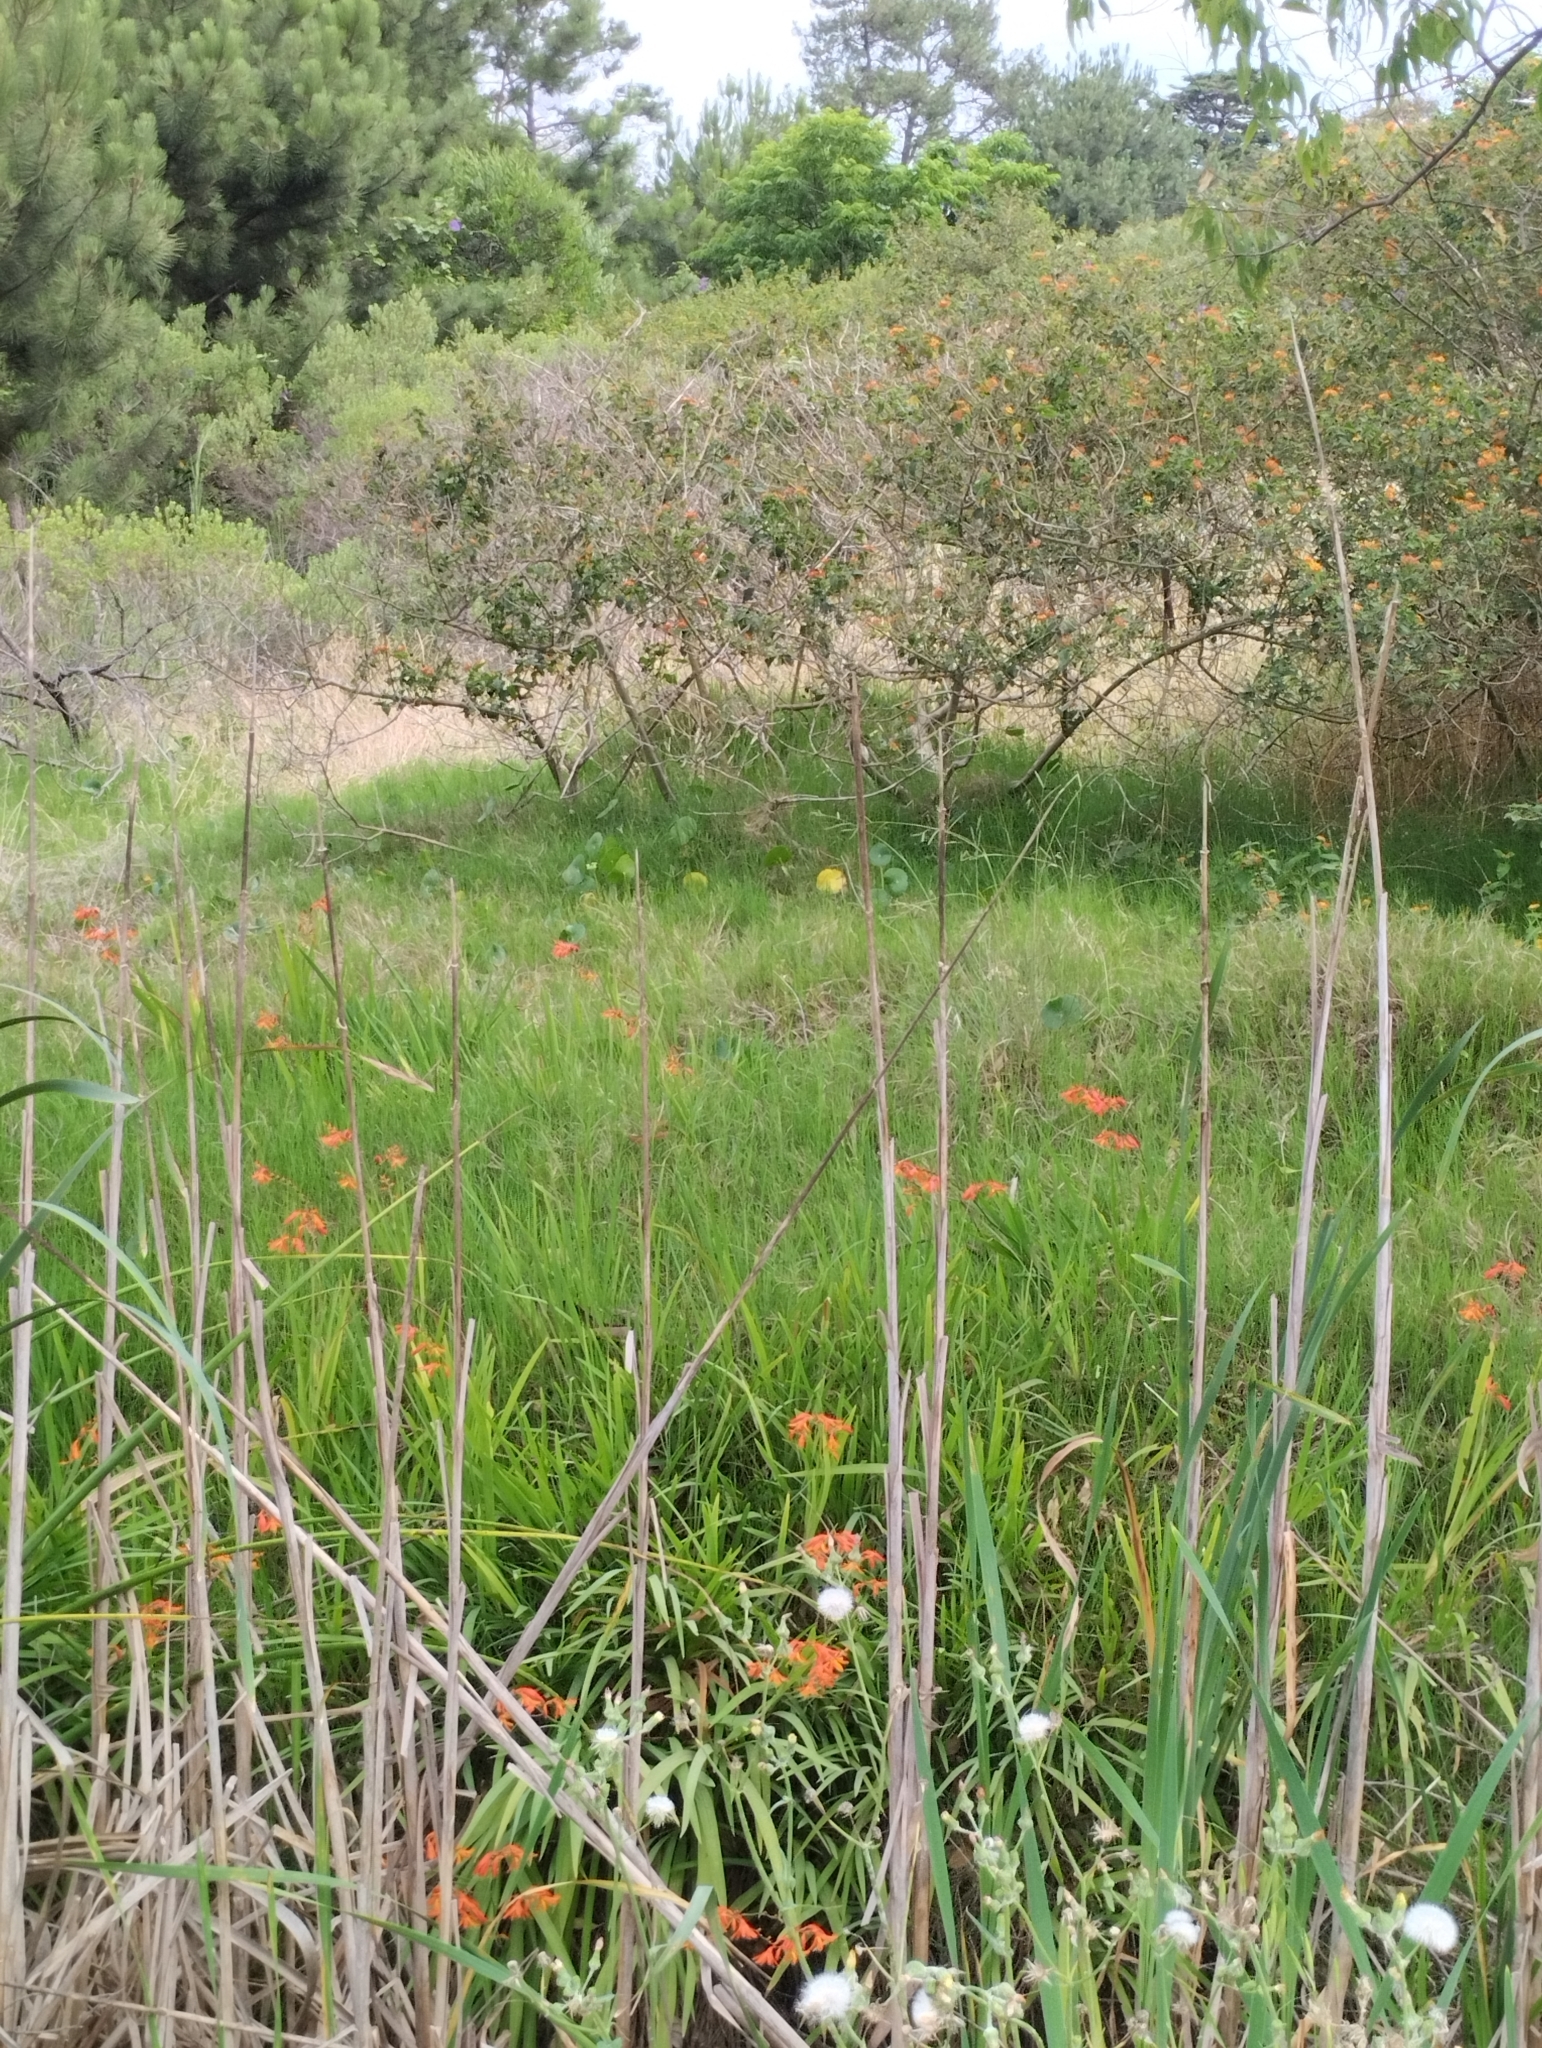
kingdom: Plantae
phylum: Tracheophyta
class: Liliopsida
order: Asparagales
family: Iridaceae
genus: Crocosmia
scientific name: Crocosmia crocosmiiflora
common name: Montbretia
